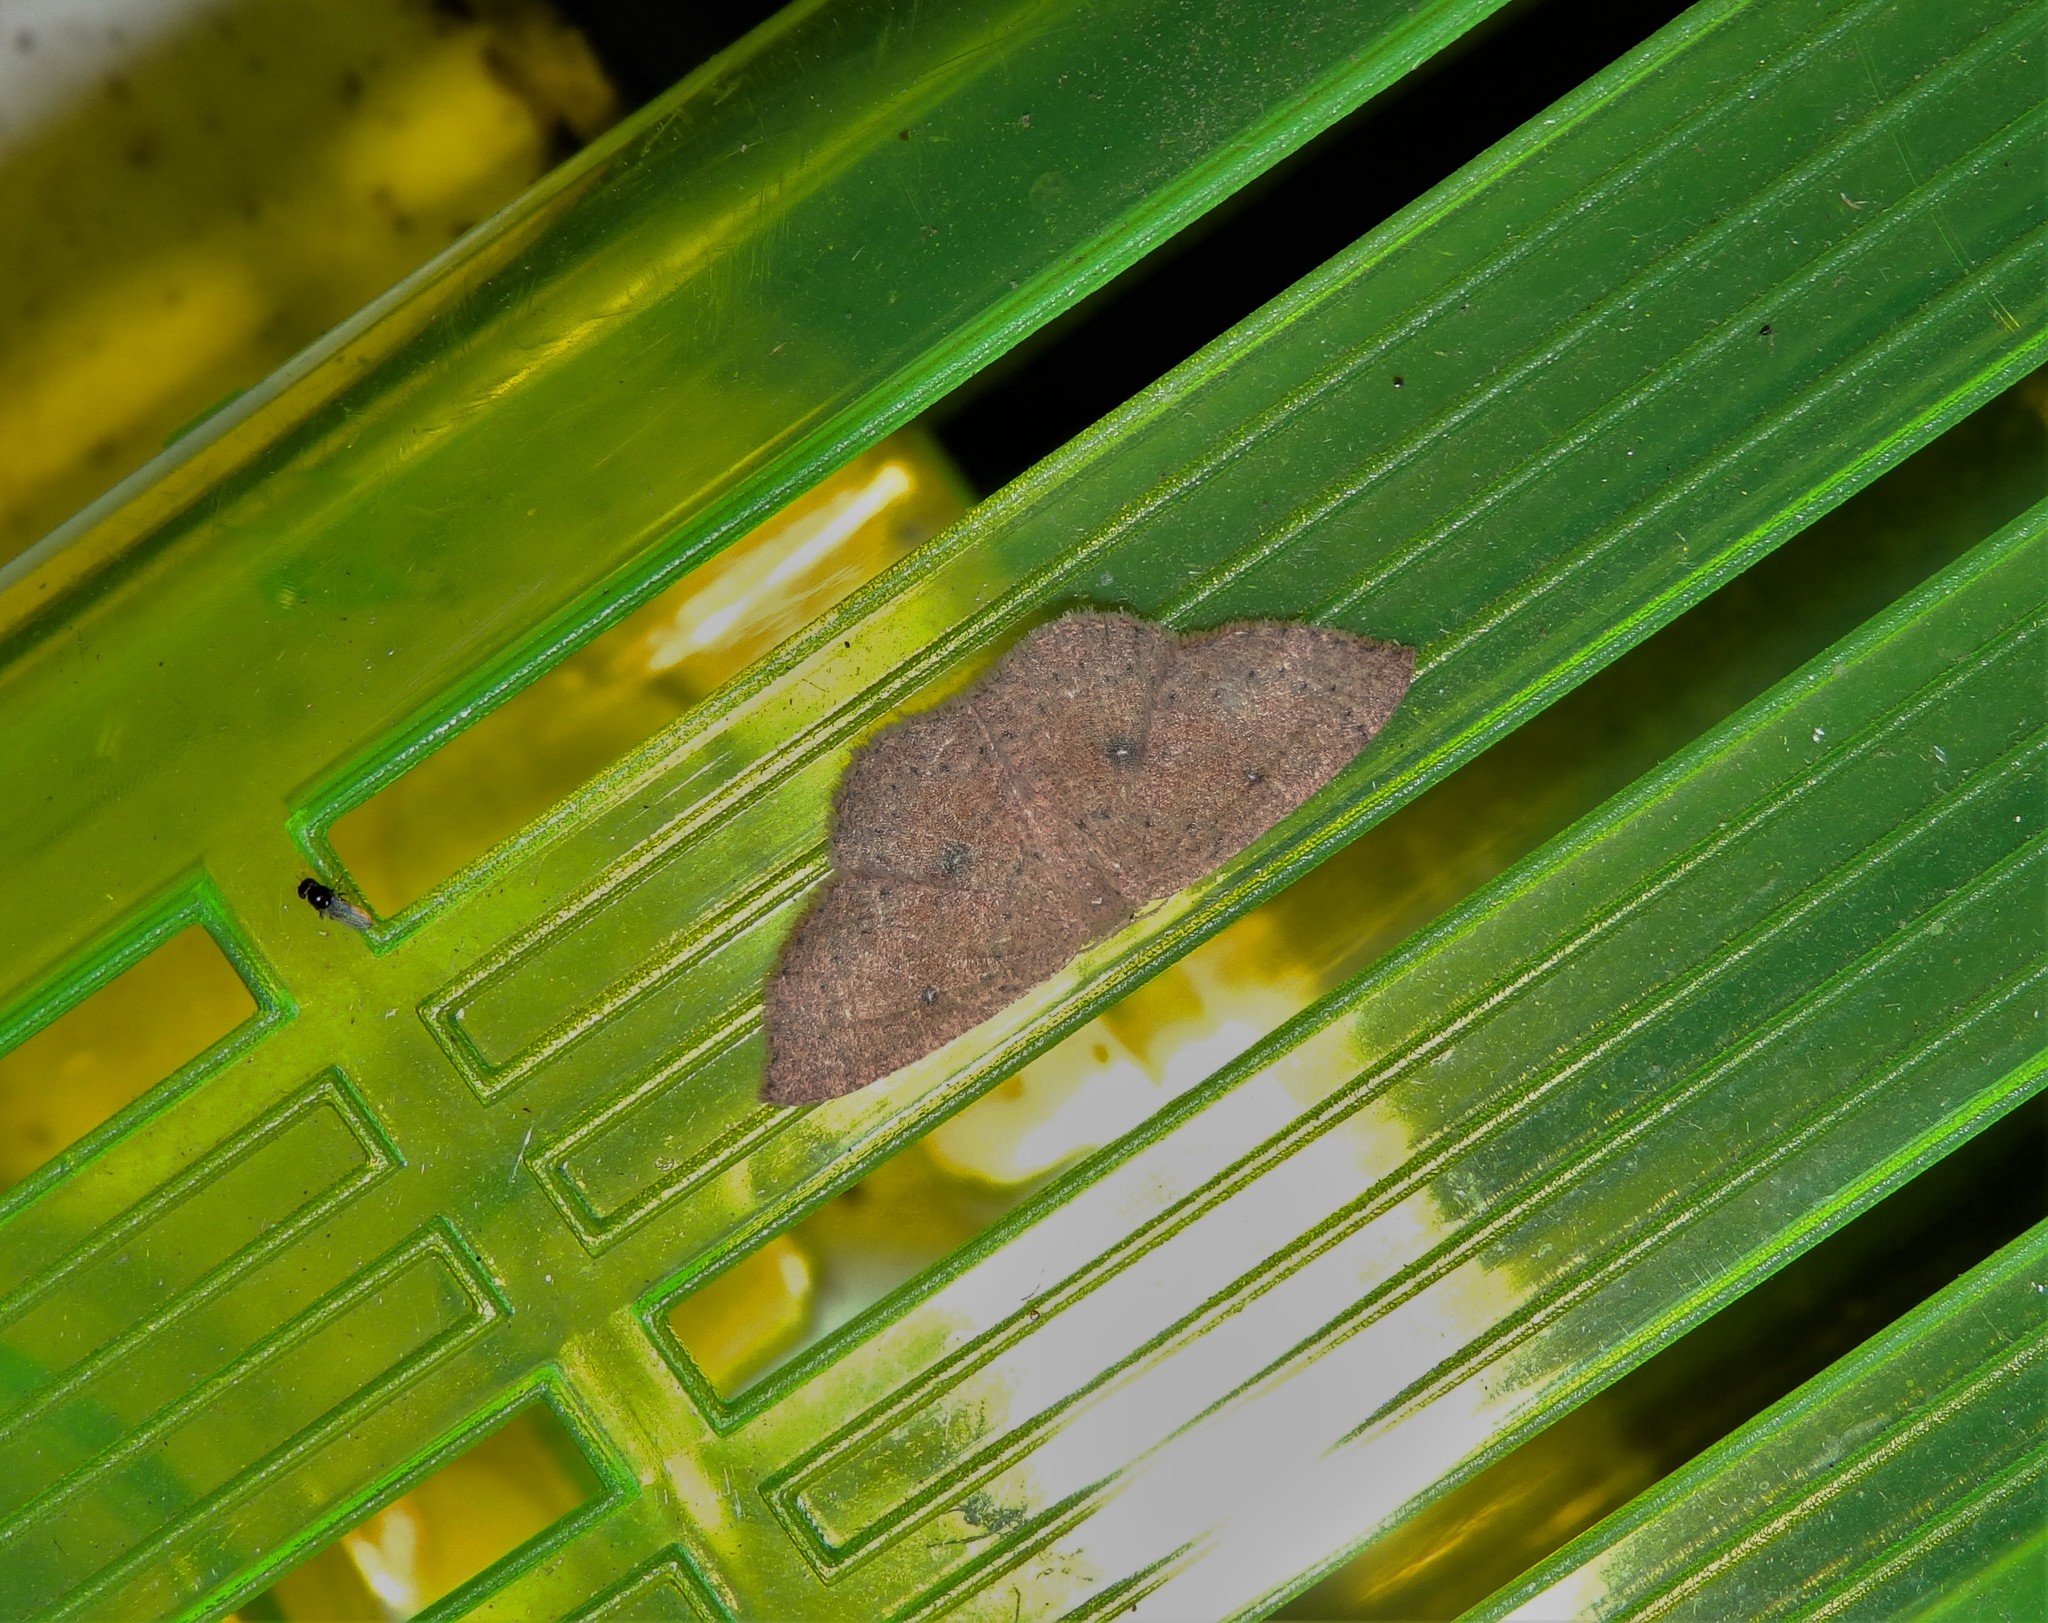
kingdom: Animalia
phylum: Arthropoda
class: Insecta
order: Lepidoptera
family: Geometridae
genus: Cyclophora
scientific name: Cyclophora packardi
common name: Packard's wave
